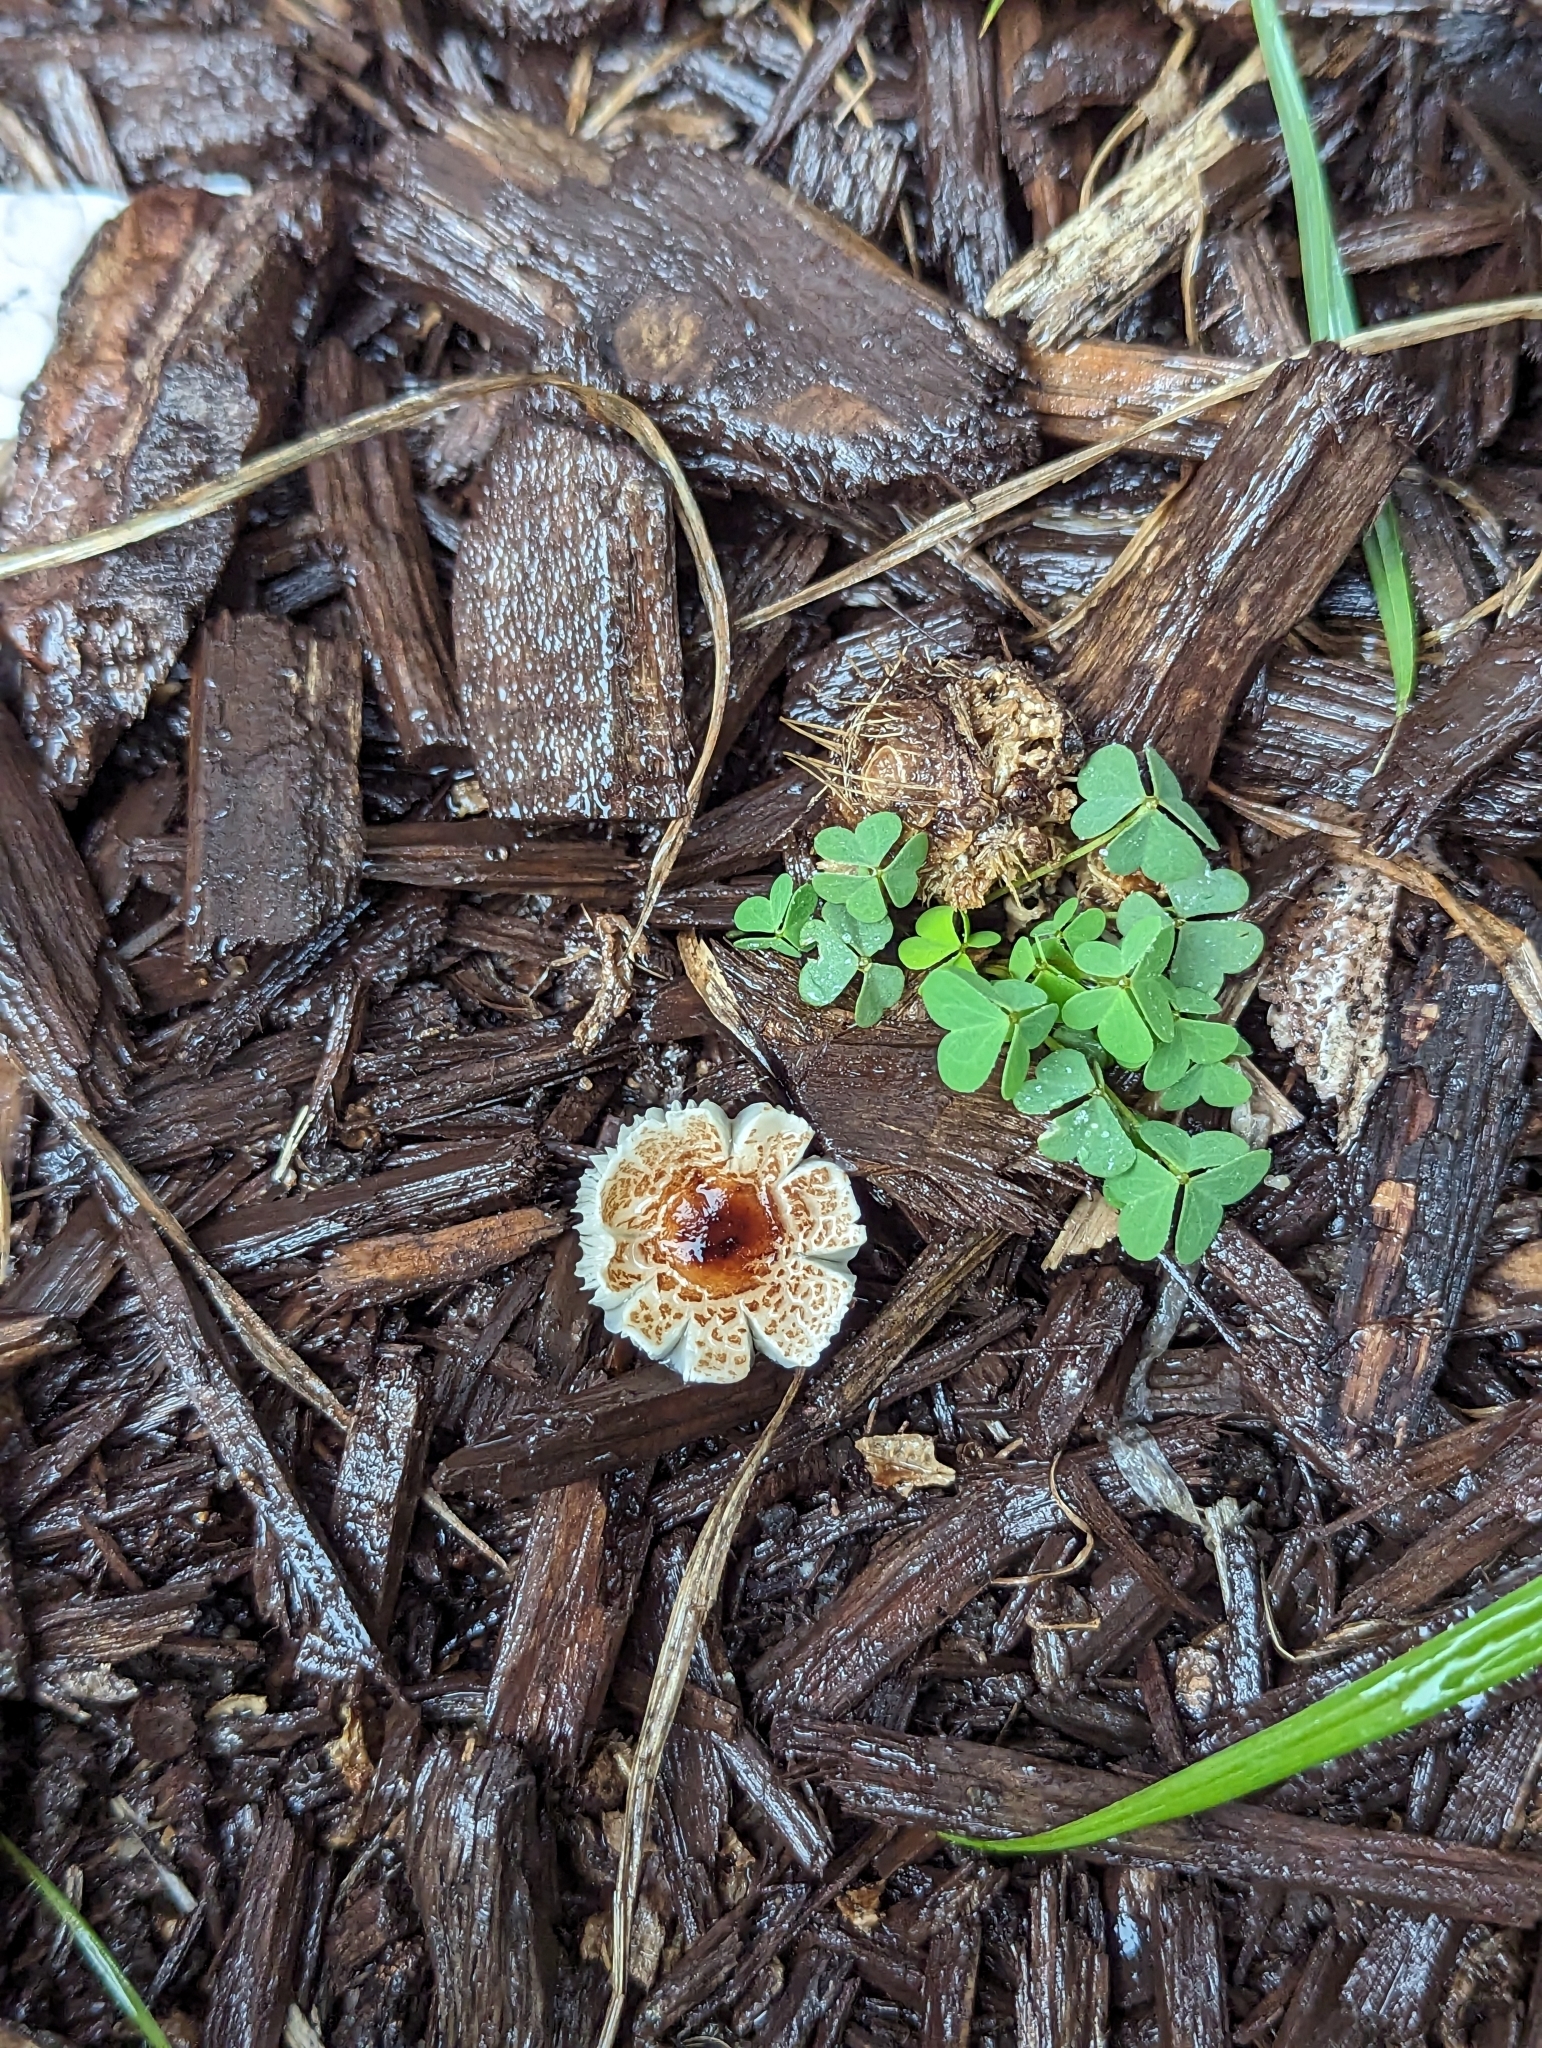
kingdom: Fungi
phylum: Basidiomycota
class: Agaricomycetes
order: Agaricales
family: Agaricaceae
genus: Lepiota
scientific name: Lepiota cristata
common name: Stinking dapperling
